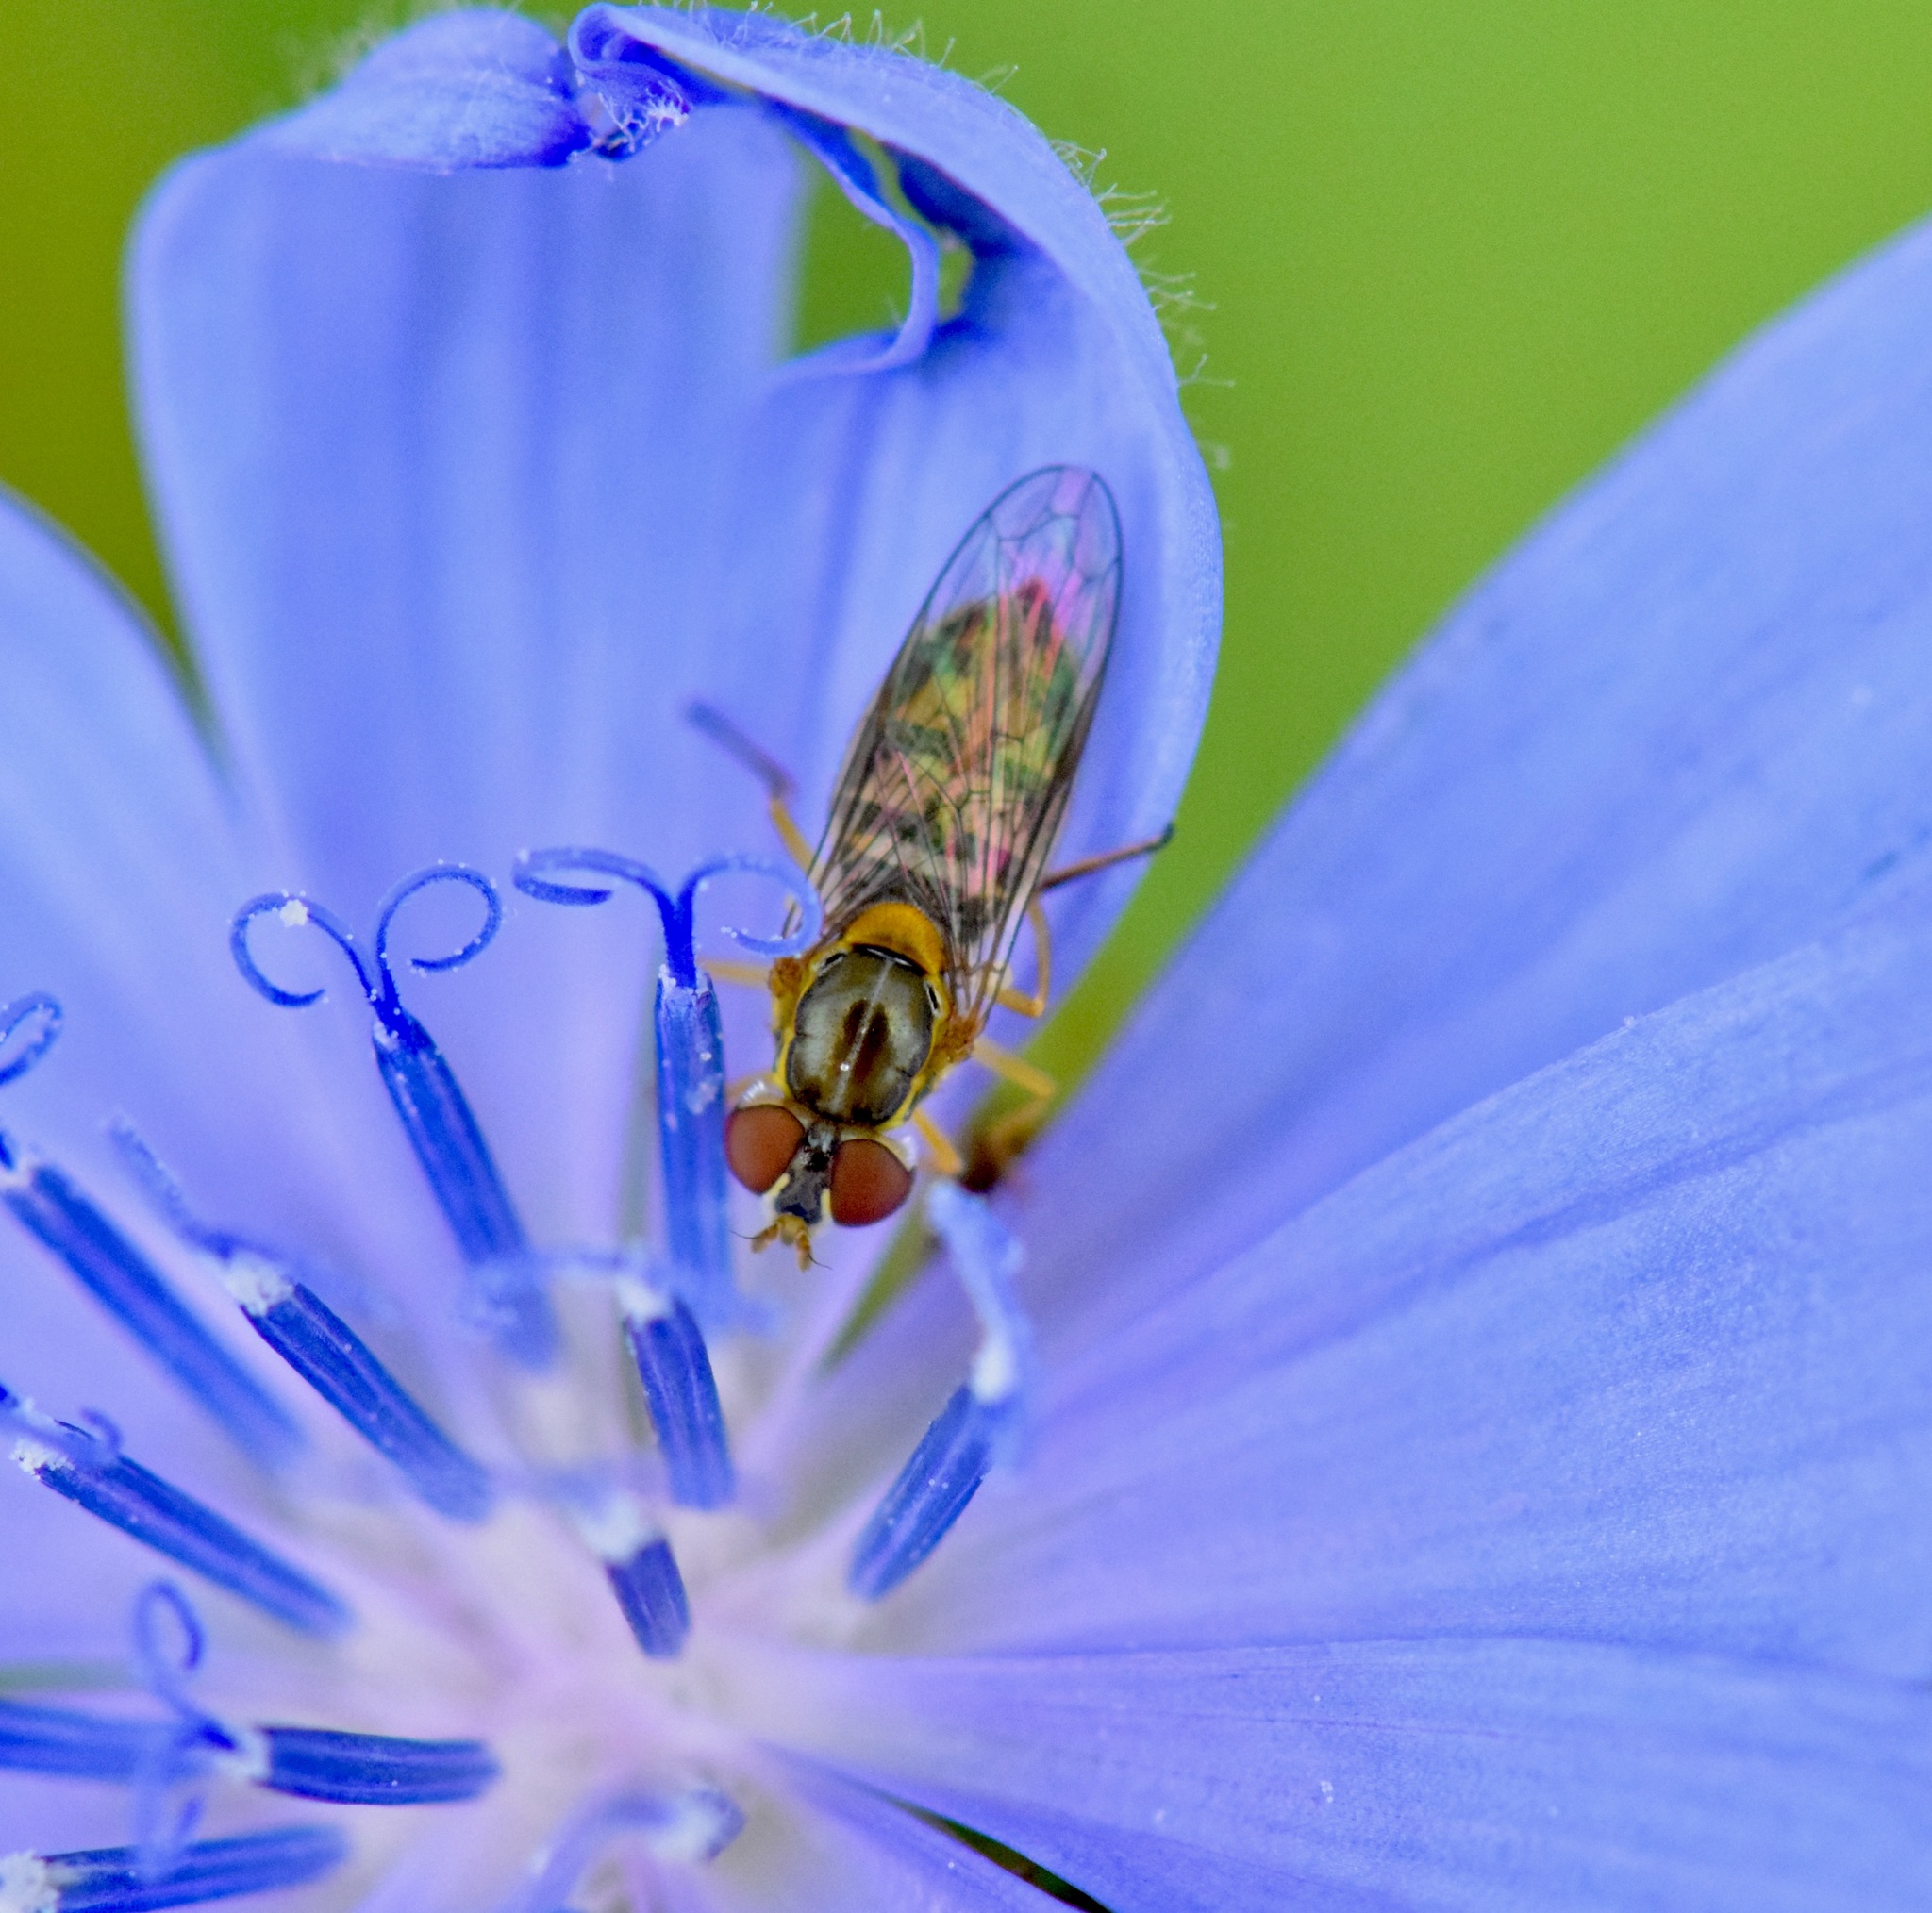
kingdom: Animalia
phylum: Arthropoda
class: Insecta
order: Diptera
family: Syrphidae
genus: Toxomerus
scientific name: Toxomerus marginatus
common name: Syrphid fly
